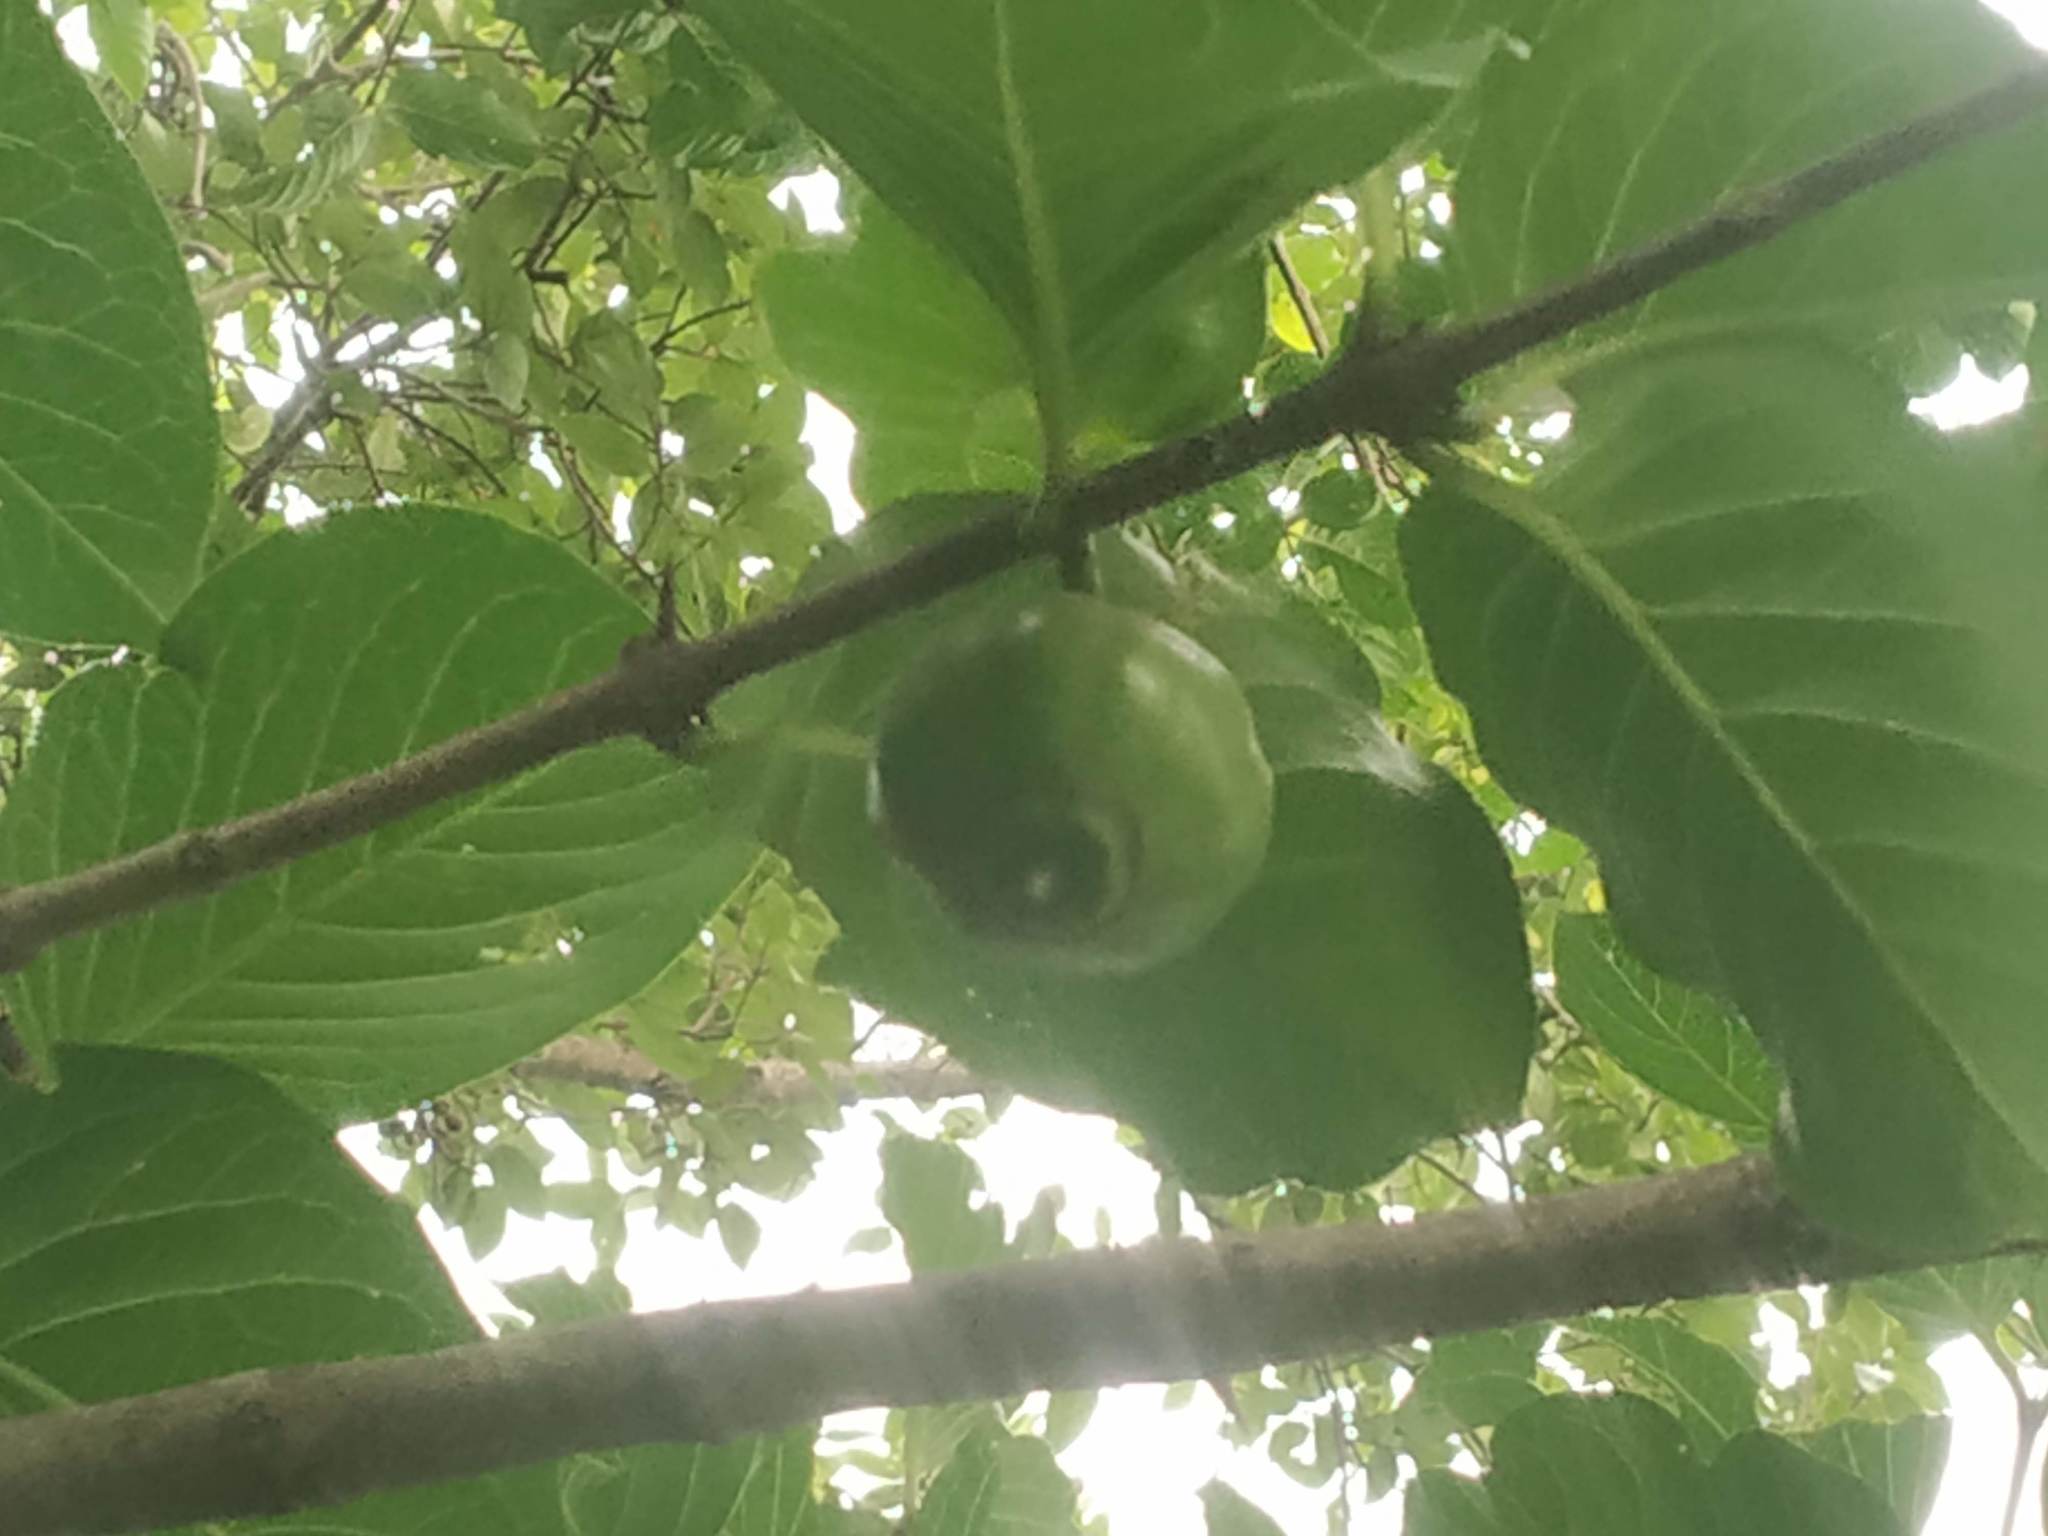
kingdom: Plantae
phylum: Tracheophyta
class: Magnoliopsida
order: Gentianales
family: Rubiaceae
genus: Meyna
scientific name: Meyna laxiflora
